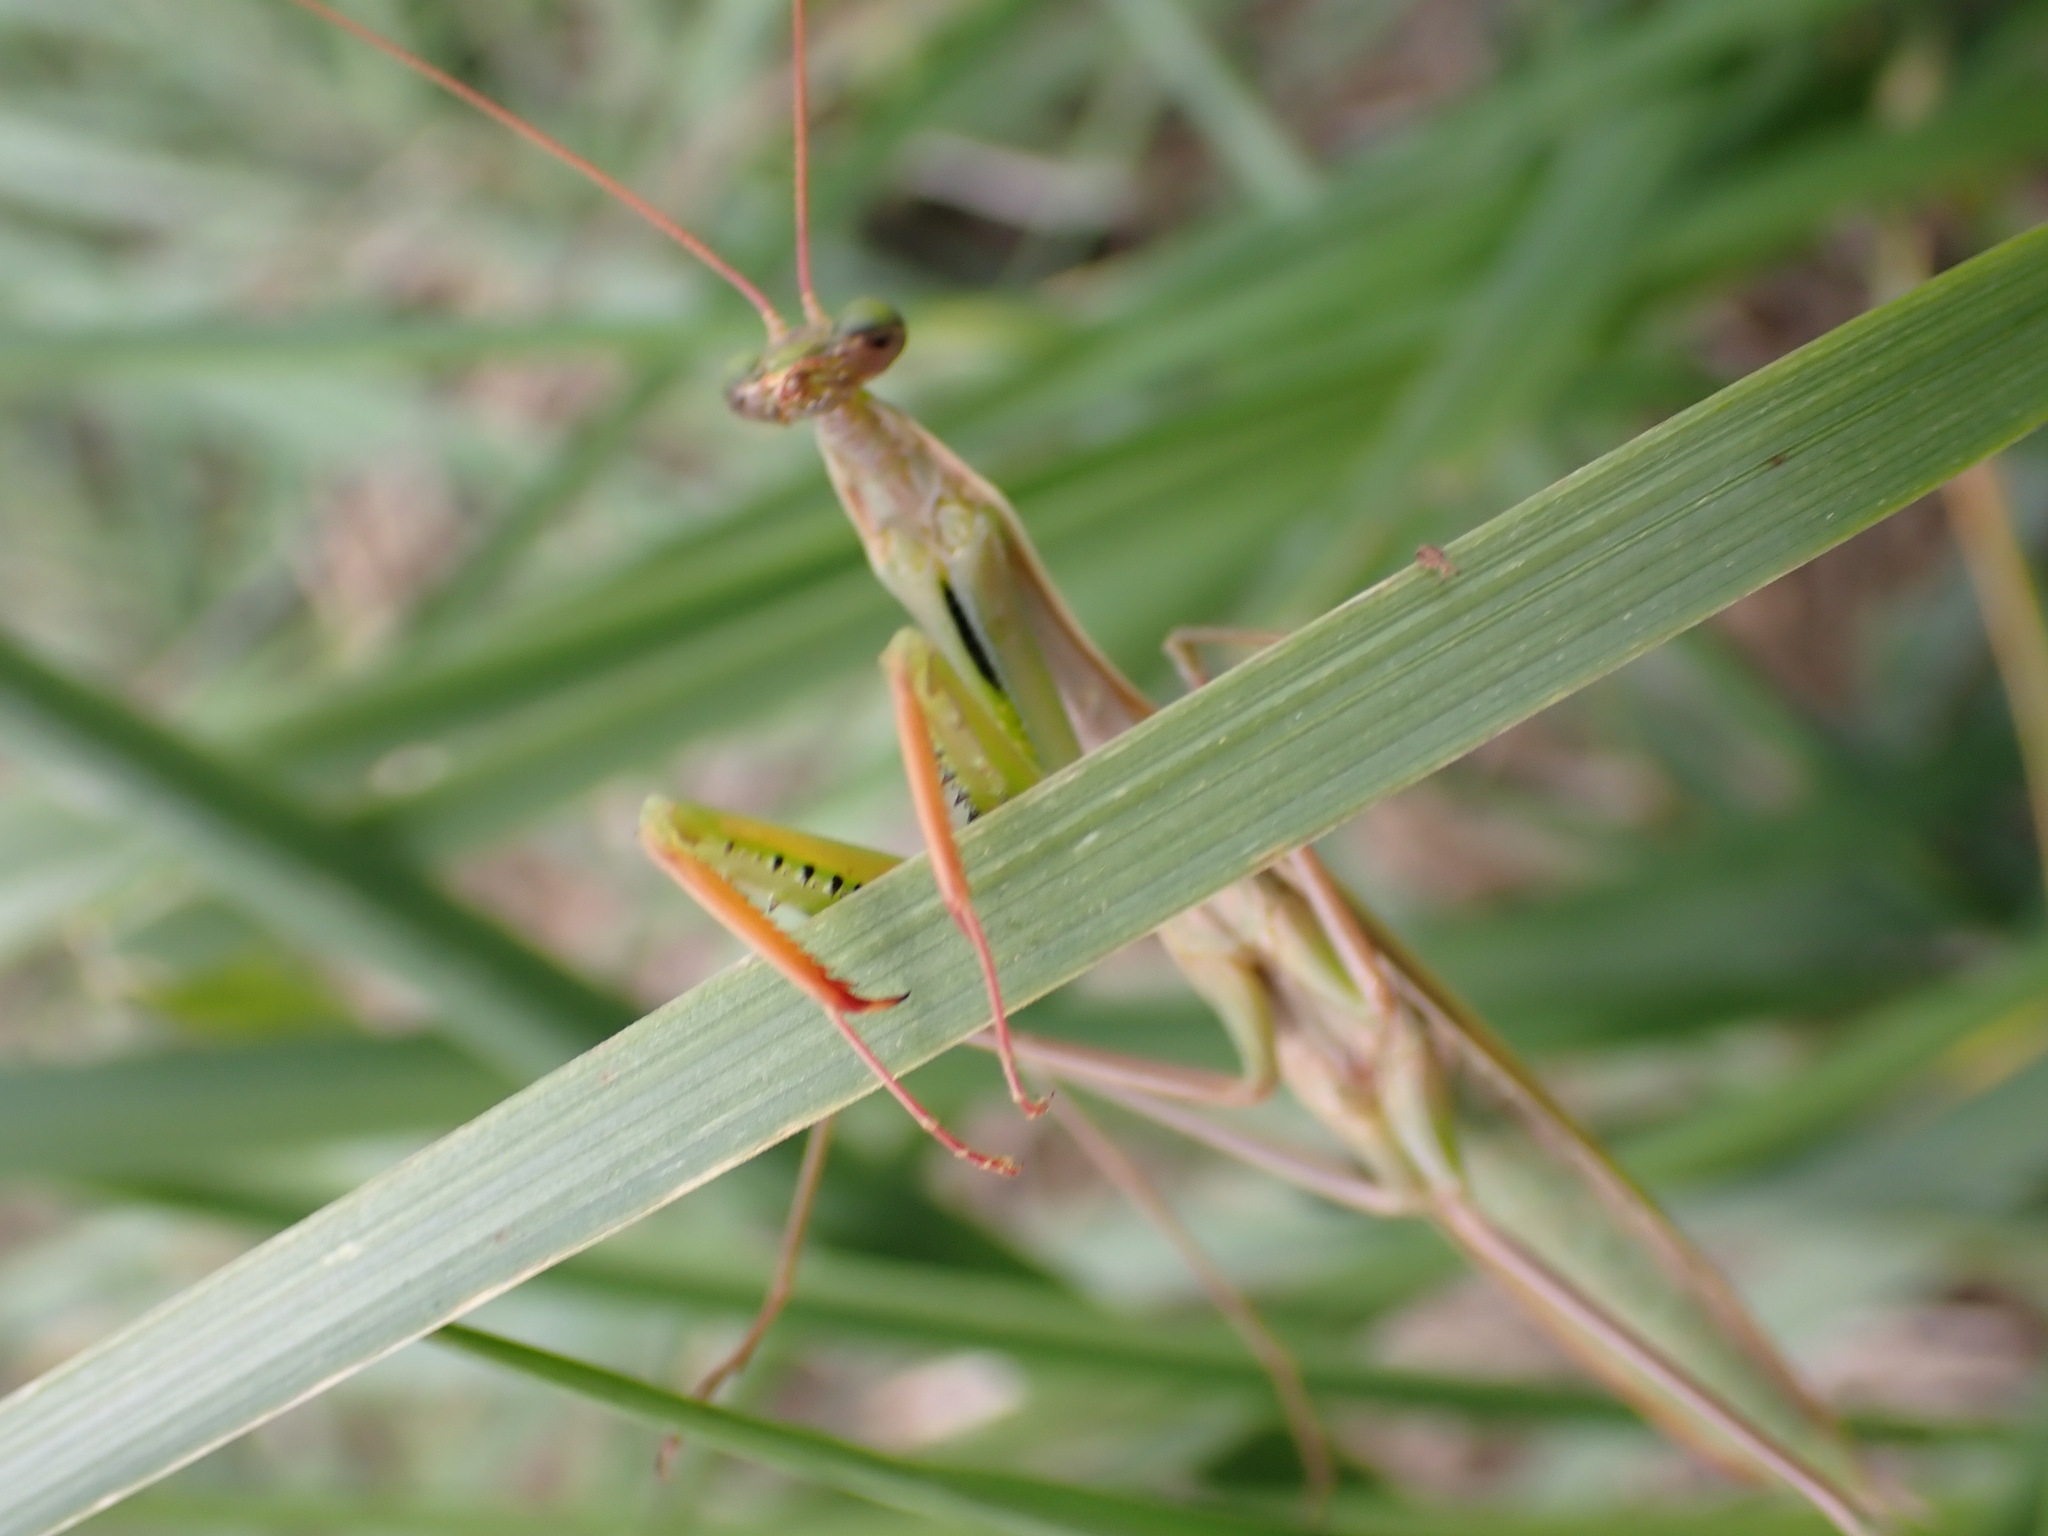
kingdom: Animalia
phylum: Arthropoda
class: Insecta
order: Mantodea
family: Mantidae
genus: Mantis
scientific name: Mantis religiosa
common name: Praying mantis
